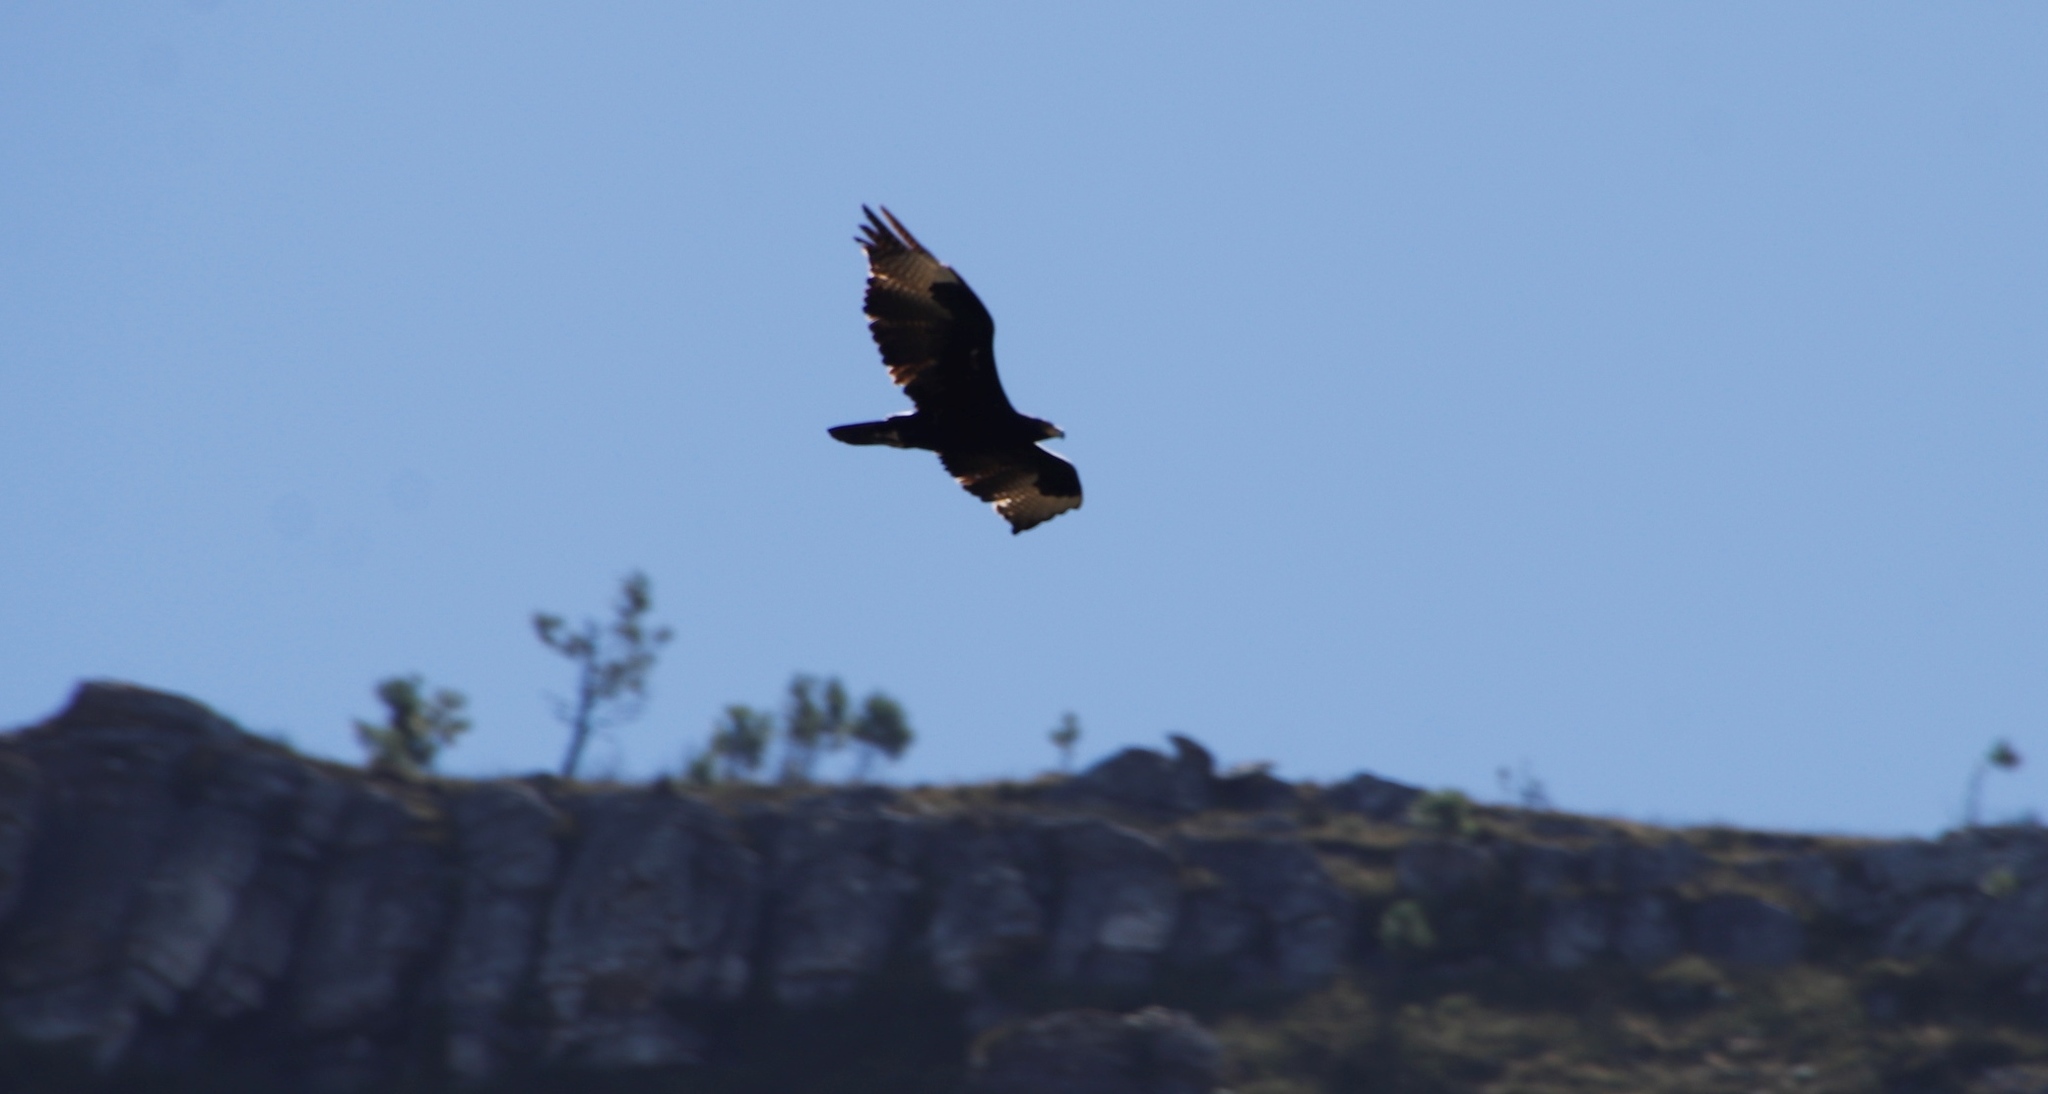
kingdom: Animalia
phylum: Chordata
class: Aves
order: Accipitriformes
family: Accipitridae
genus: Aquila
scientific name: Aquila verreauxii
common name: Verreaux's eagle
